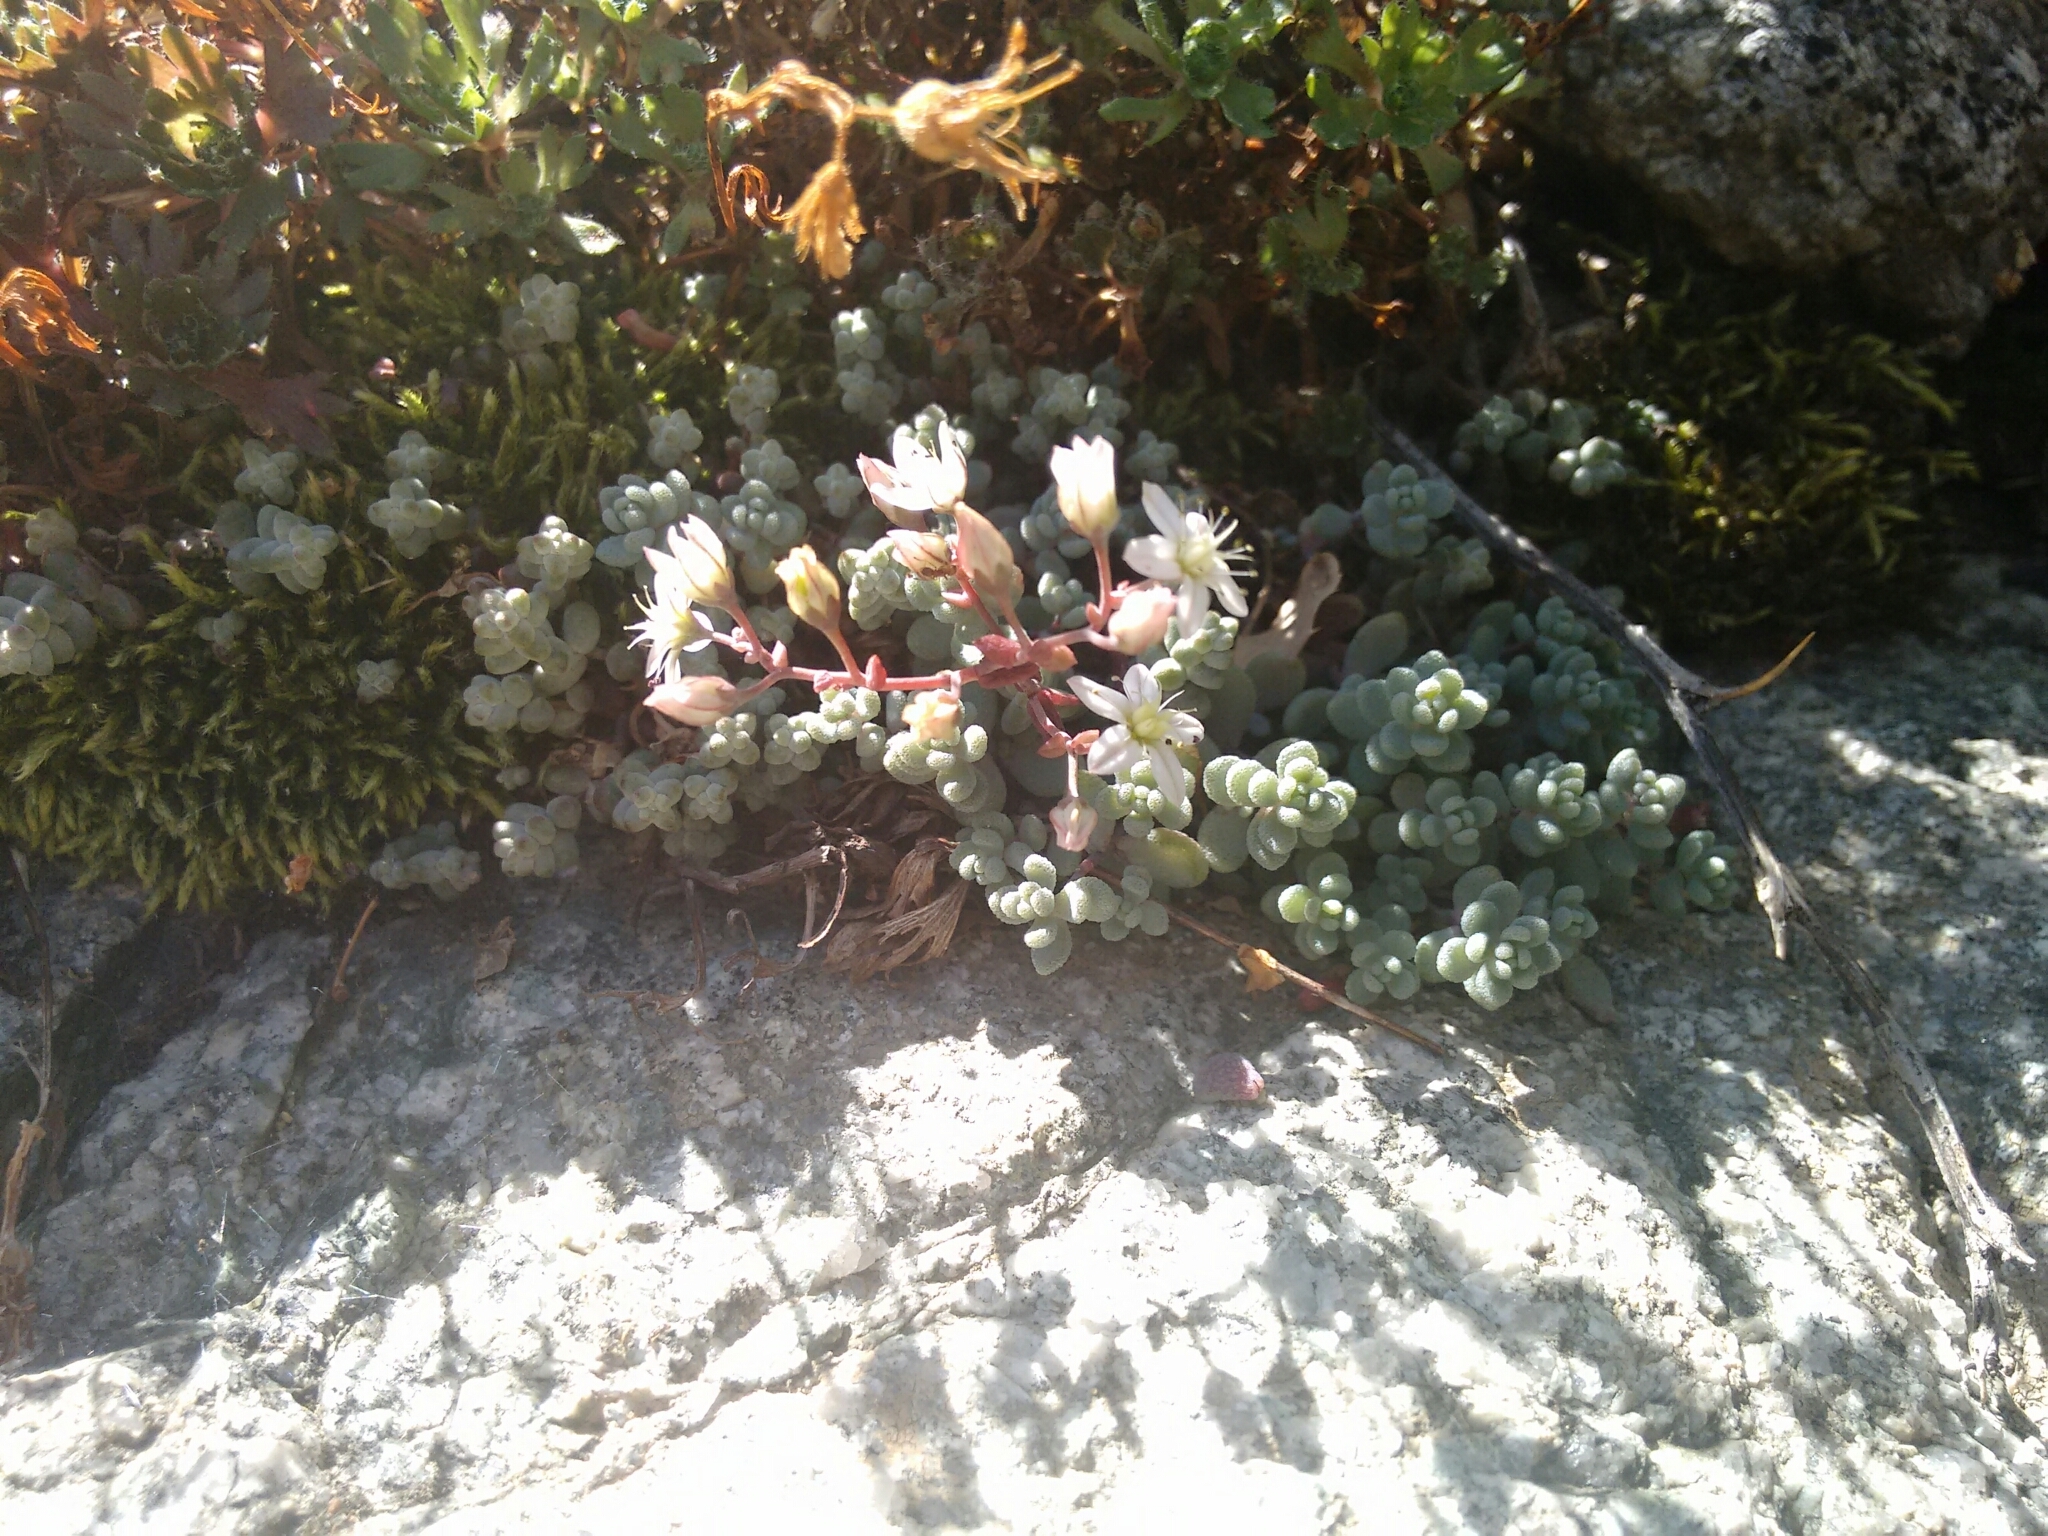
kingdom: Plantae
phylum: Tracheophyta
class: Magnoliopsida
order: Saxifragales
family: Crassulaceae
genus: Sedum
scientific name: Sedum dasyphyllum
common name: Thick-leaf stonecrop
